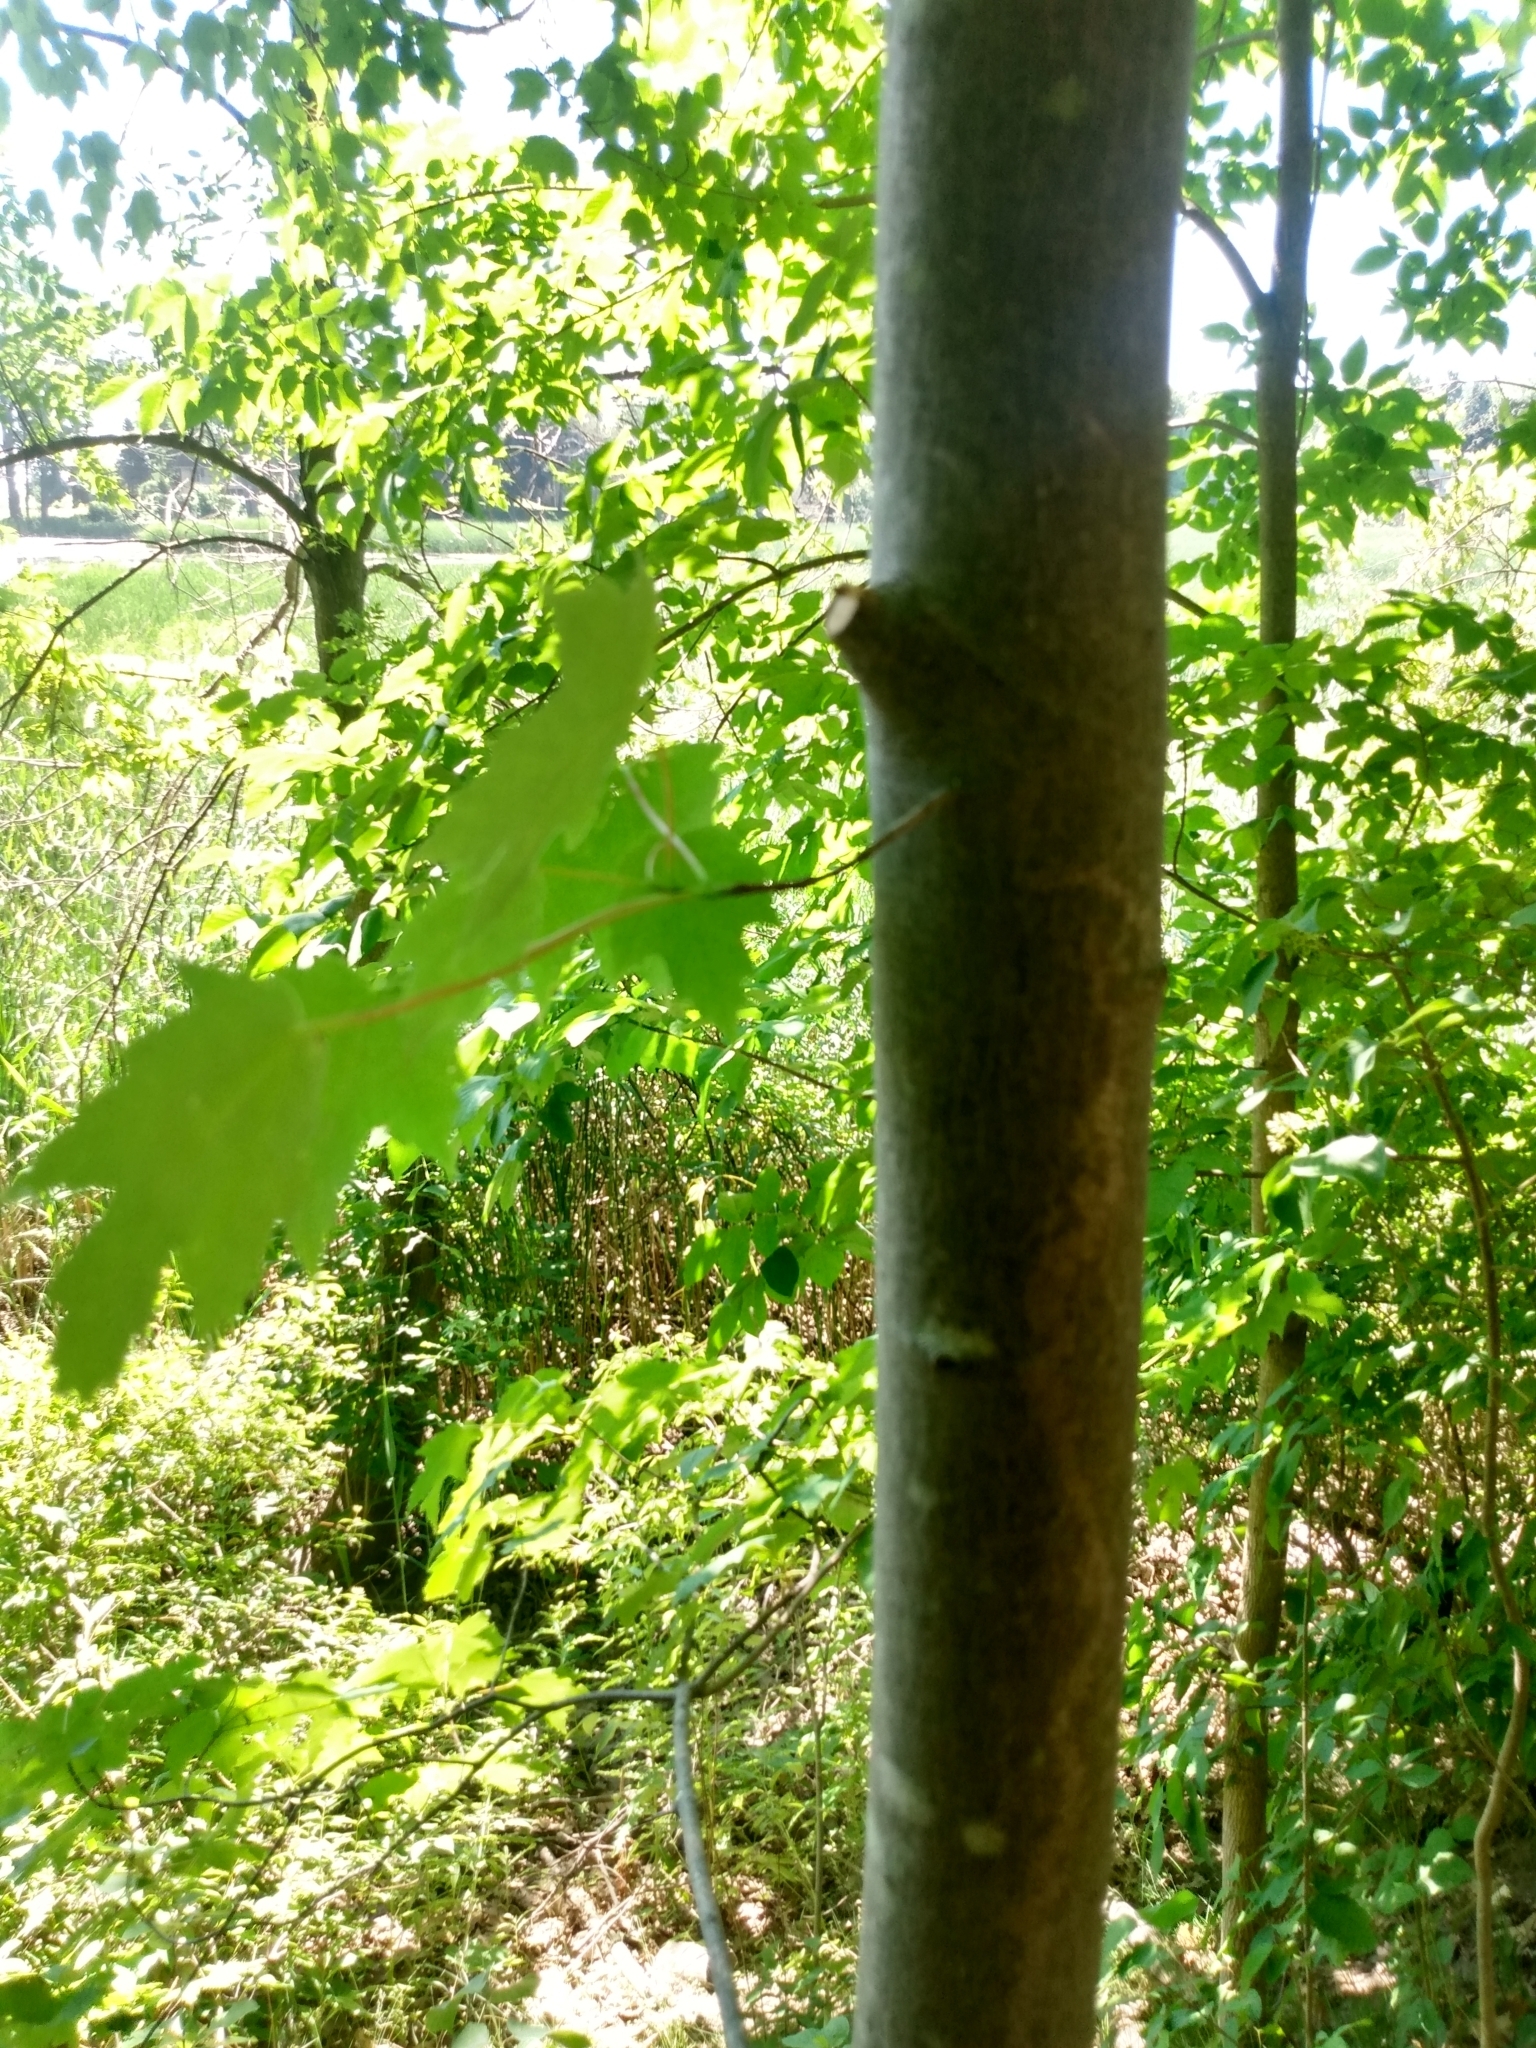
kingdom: Plantae
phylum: Tracheophyta
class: Magnoliopsida
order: Sapindales
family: Sapindaceae
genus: Acer
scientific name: Acer rubrum
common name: Red maple
